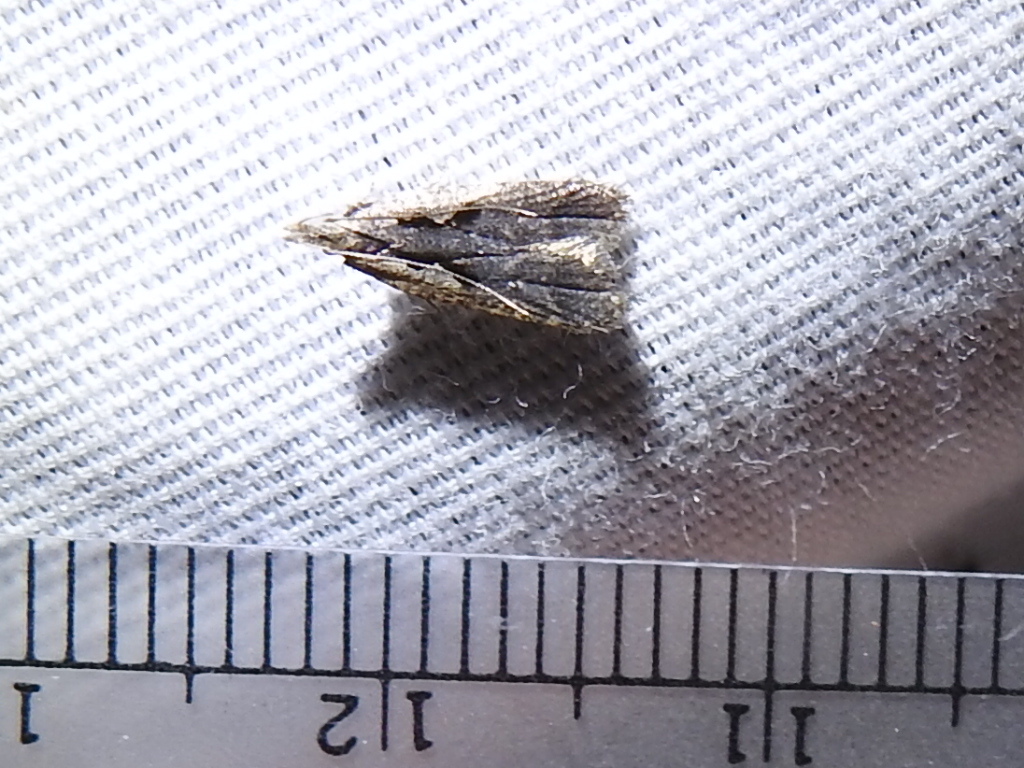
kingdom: Animalia
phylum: Arthropoda
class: Insecta
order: Lepidoptera
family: Gelechiidae
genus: Dichomeris
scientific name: Dichomeris setosella
